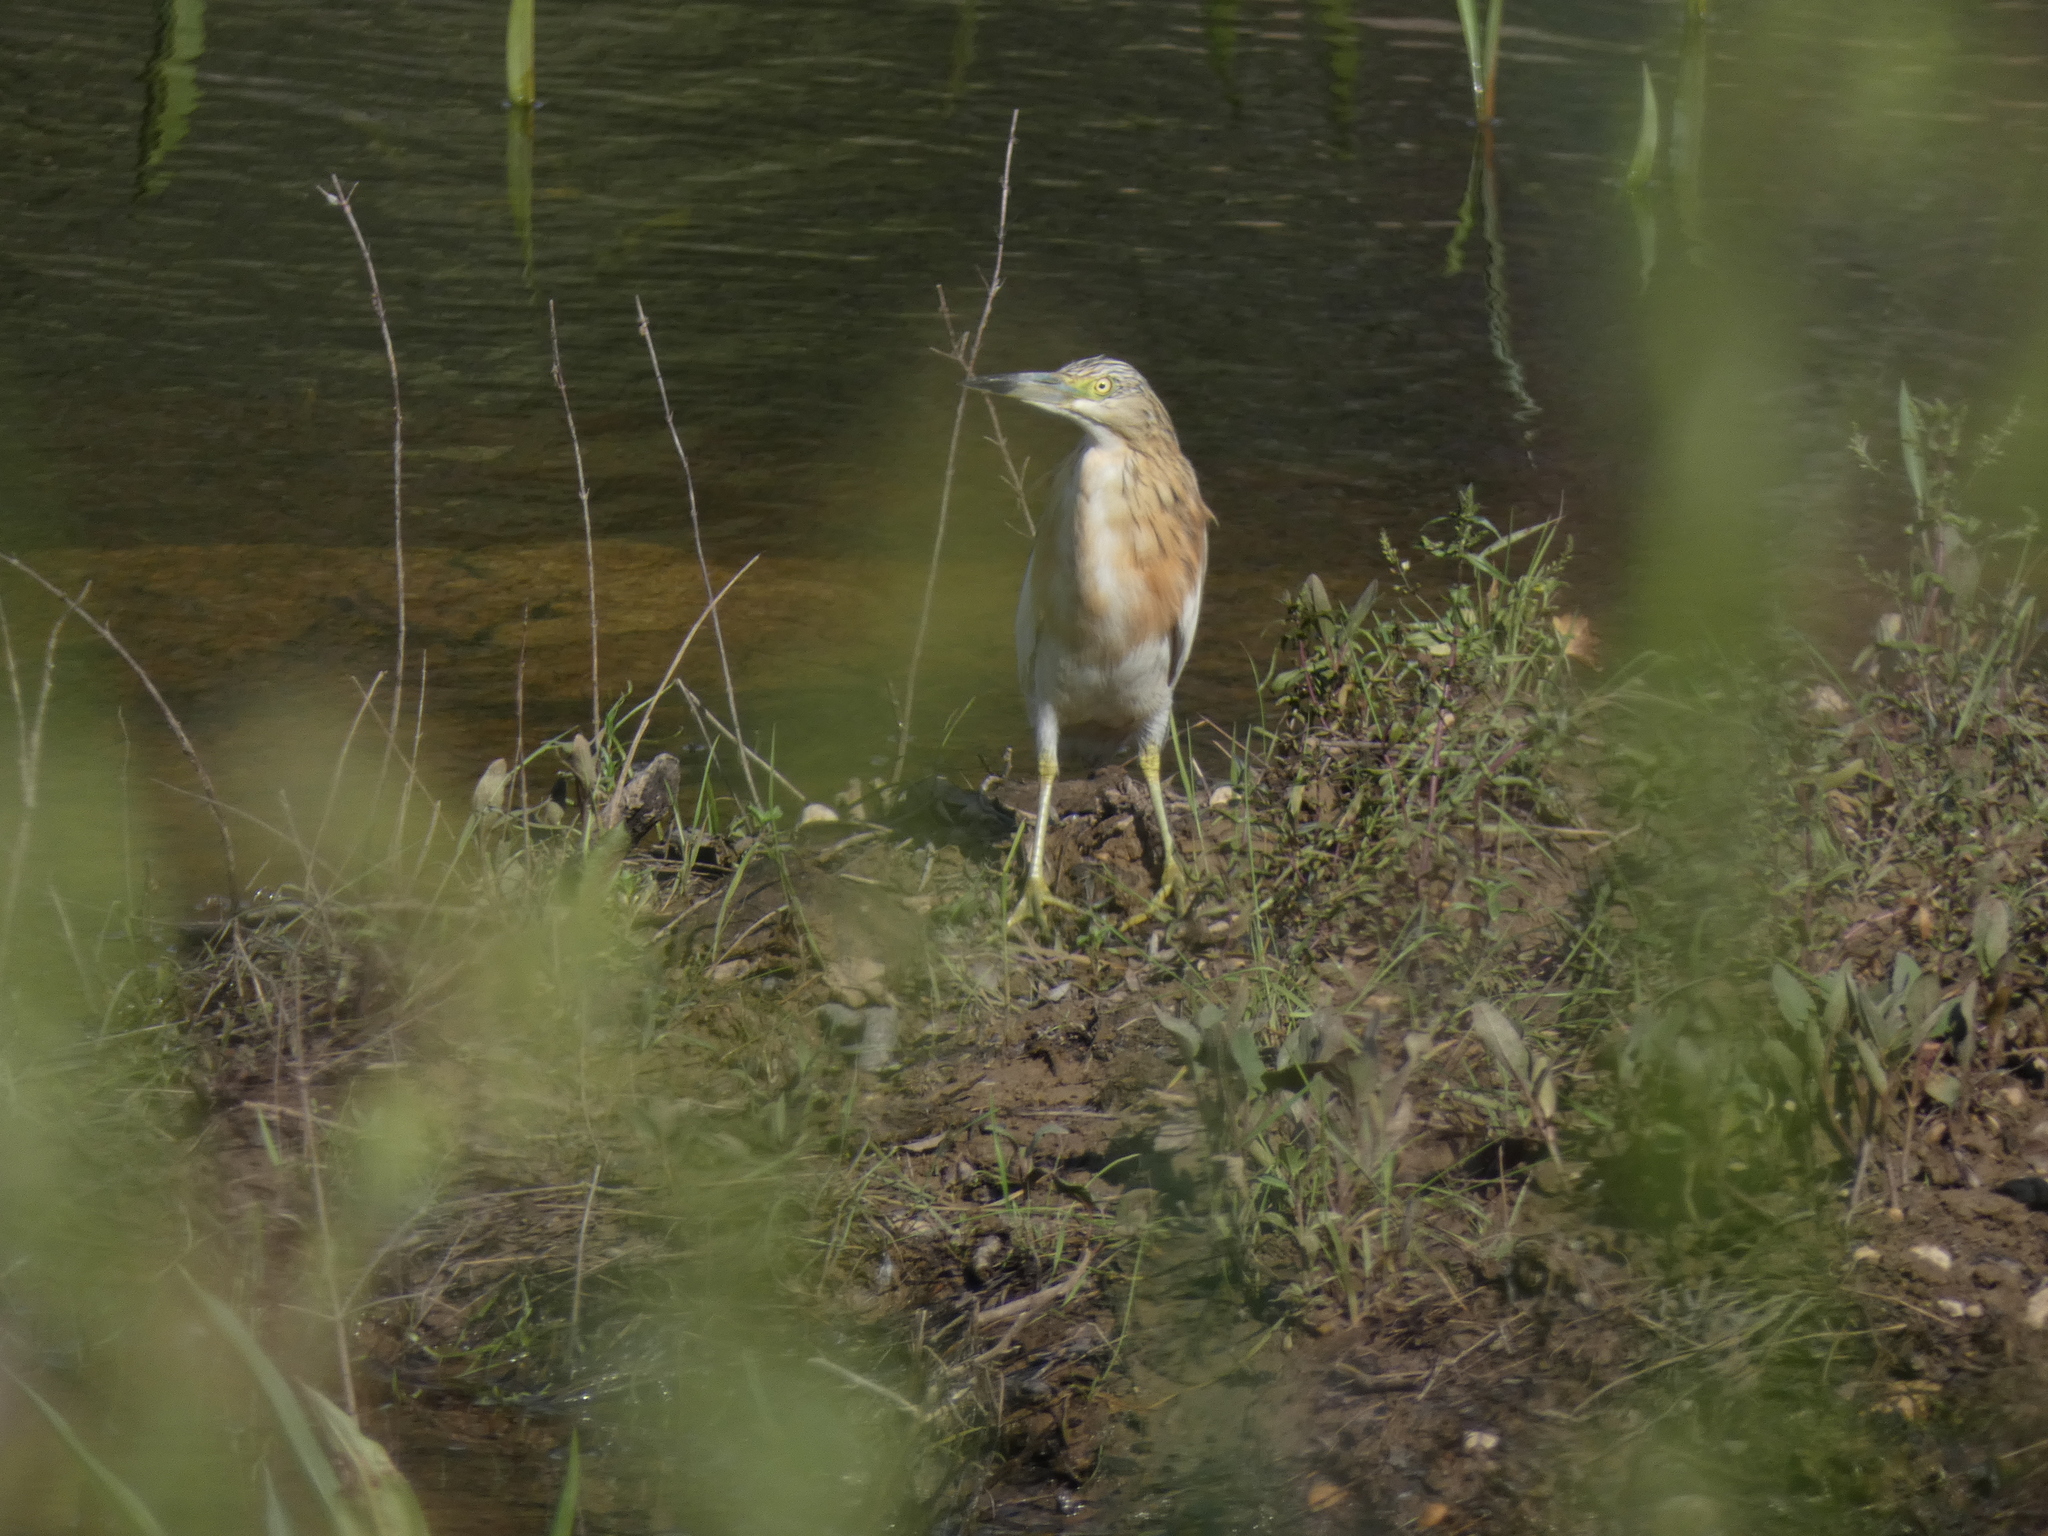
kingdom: Animalia
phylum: Chordata
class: Aves
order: Pelecaniformes
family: Ardeidae
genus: Ardeola
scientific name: Ardeola ralloides
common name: Squacco heron
